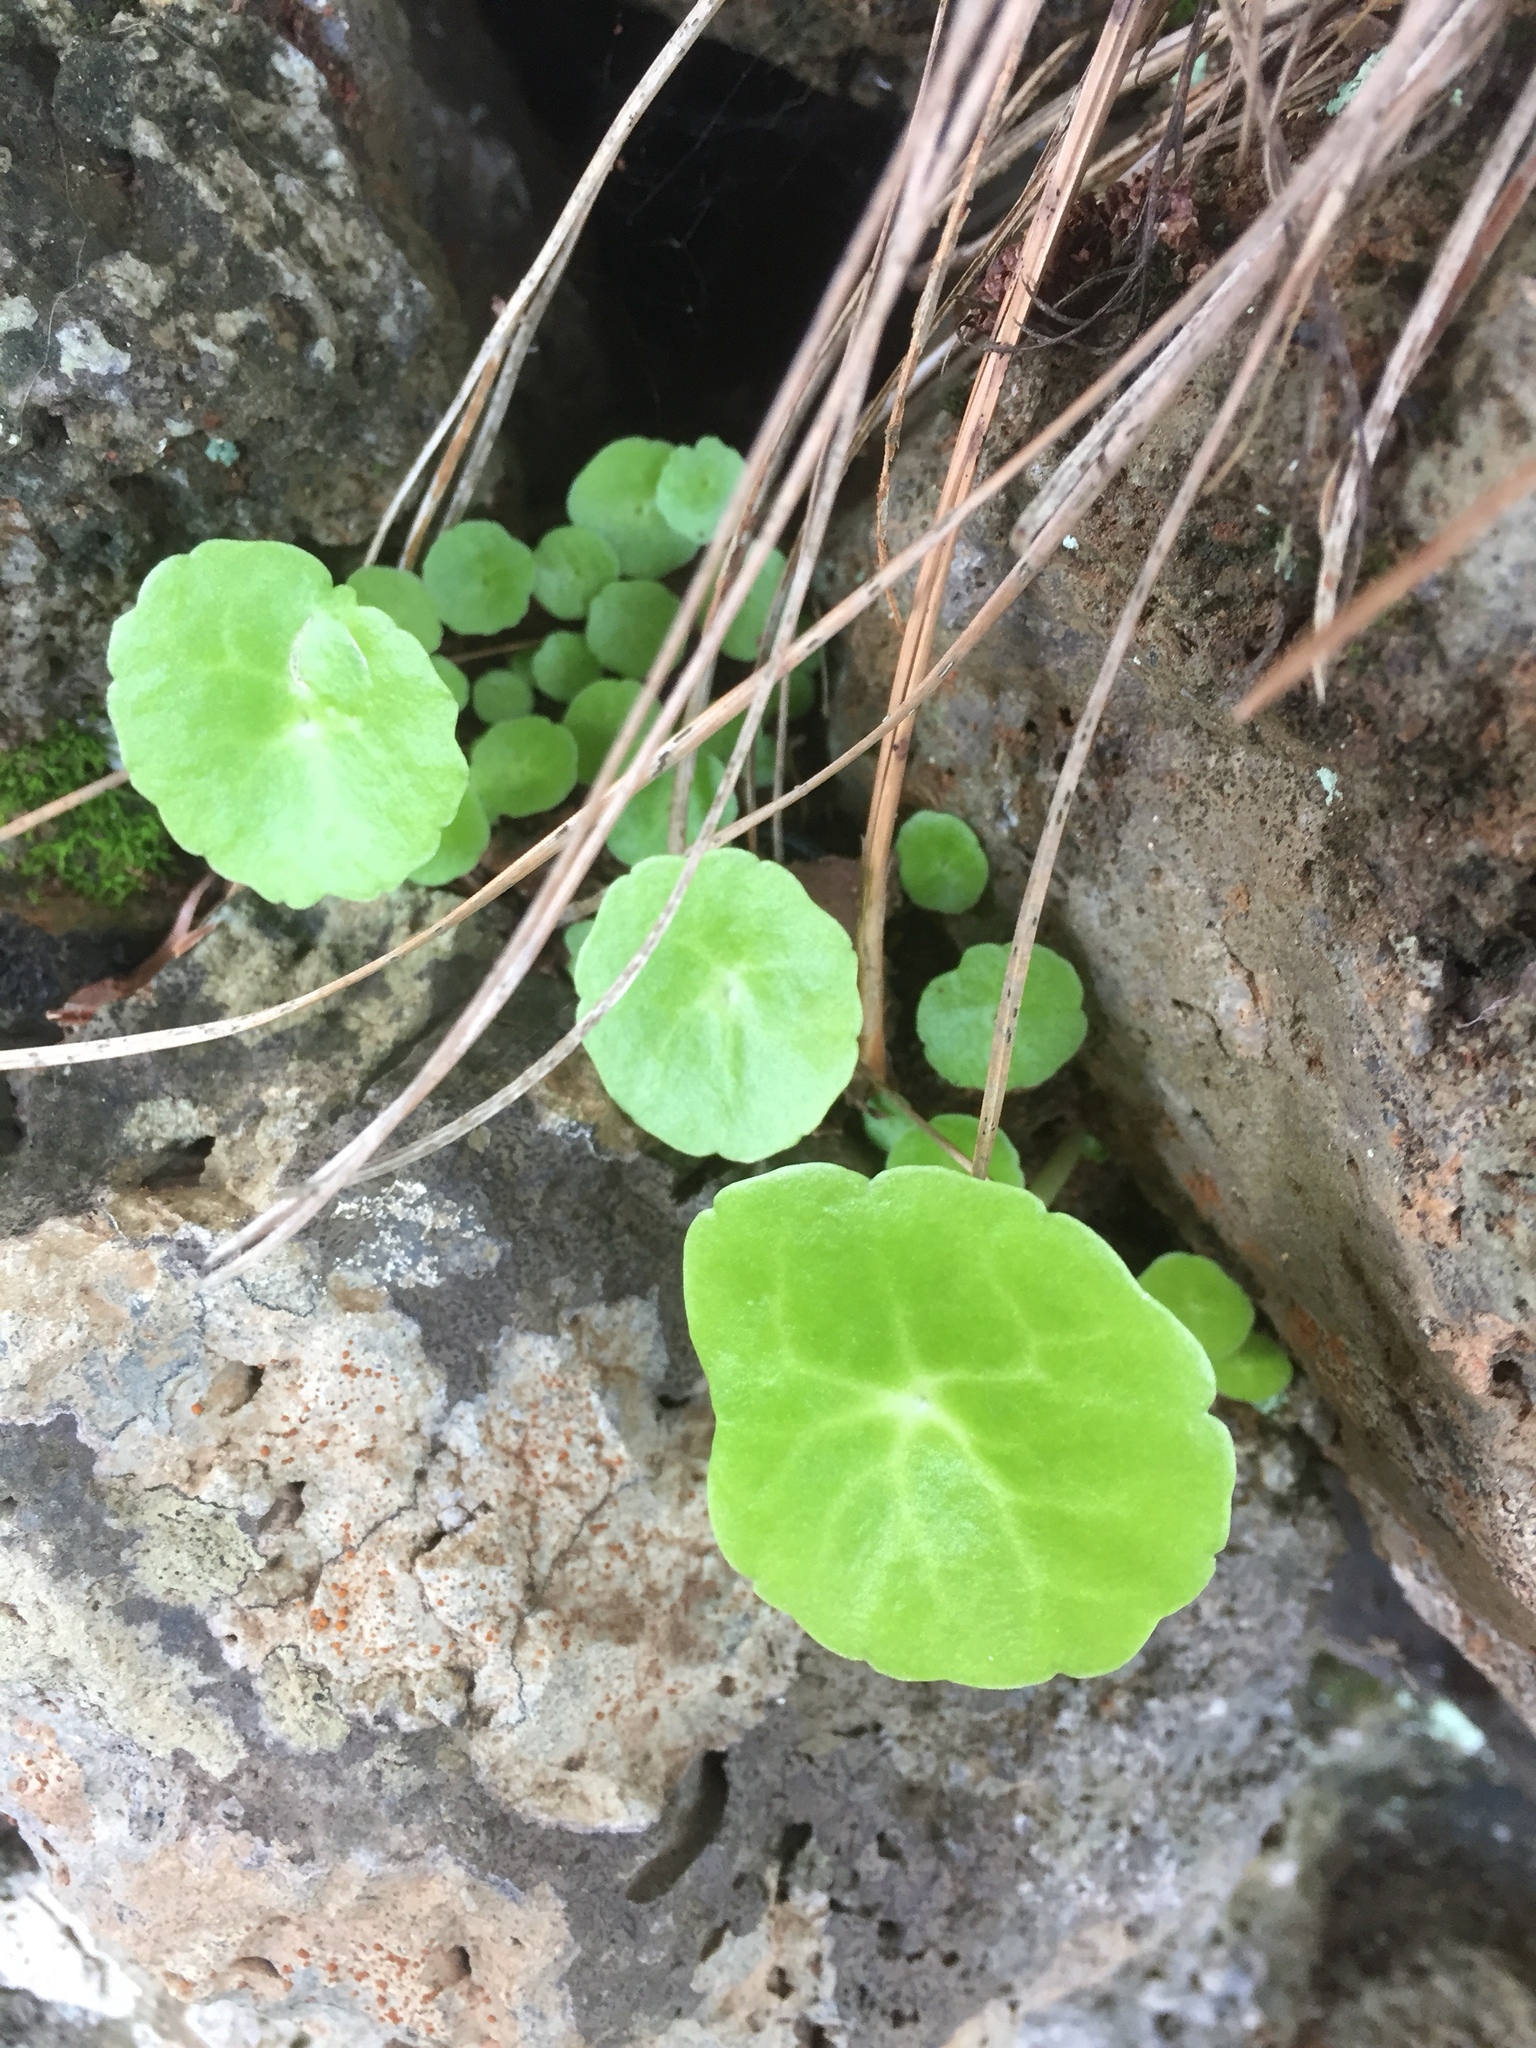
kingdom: Plantae
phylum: Tracheophyta
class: Magnoliopsida
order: Saxifragales
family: Crassulaceae
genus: Umbilicus
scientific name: Umbilicus horizontalis
